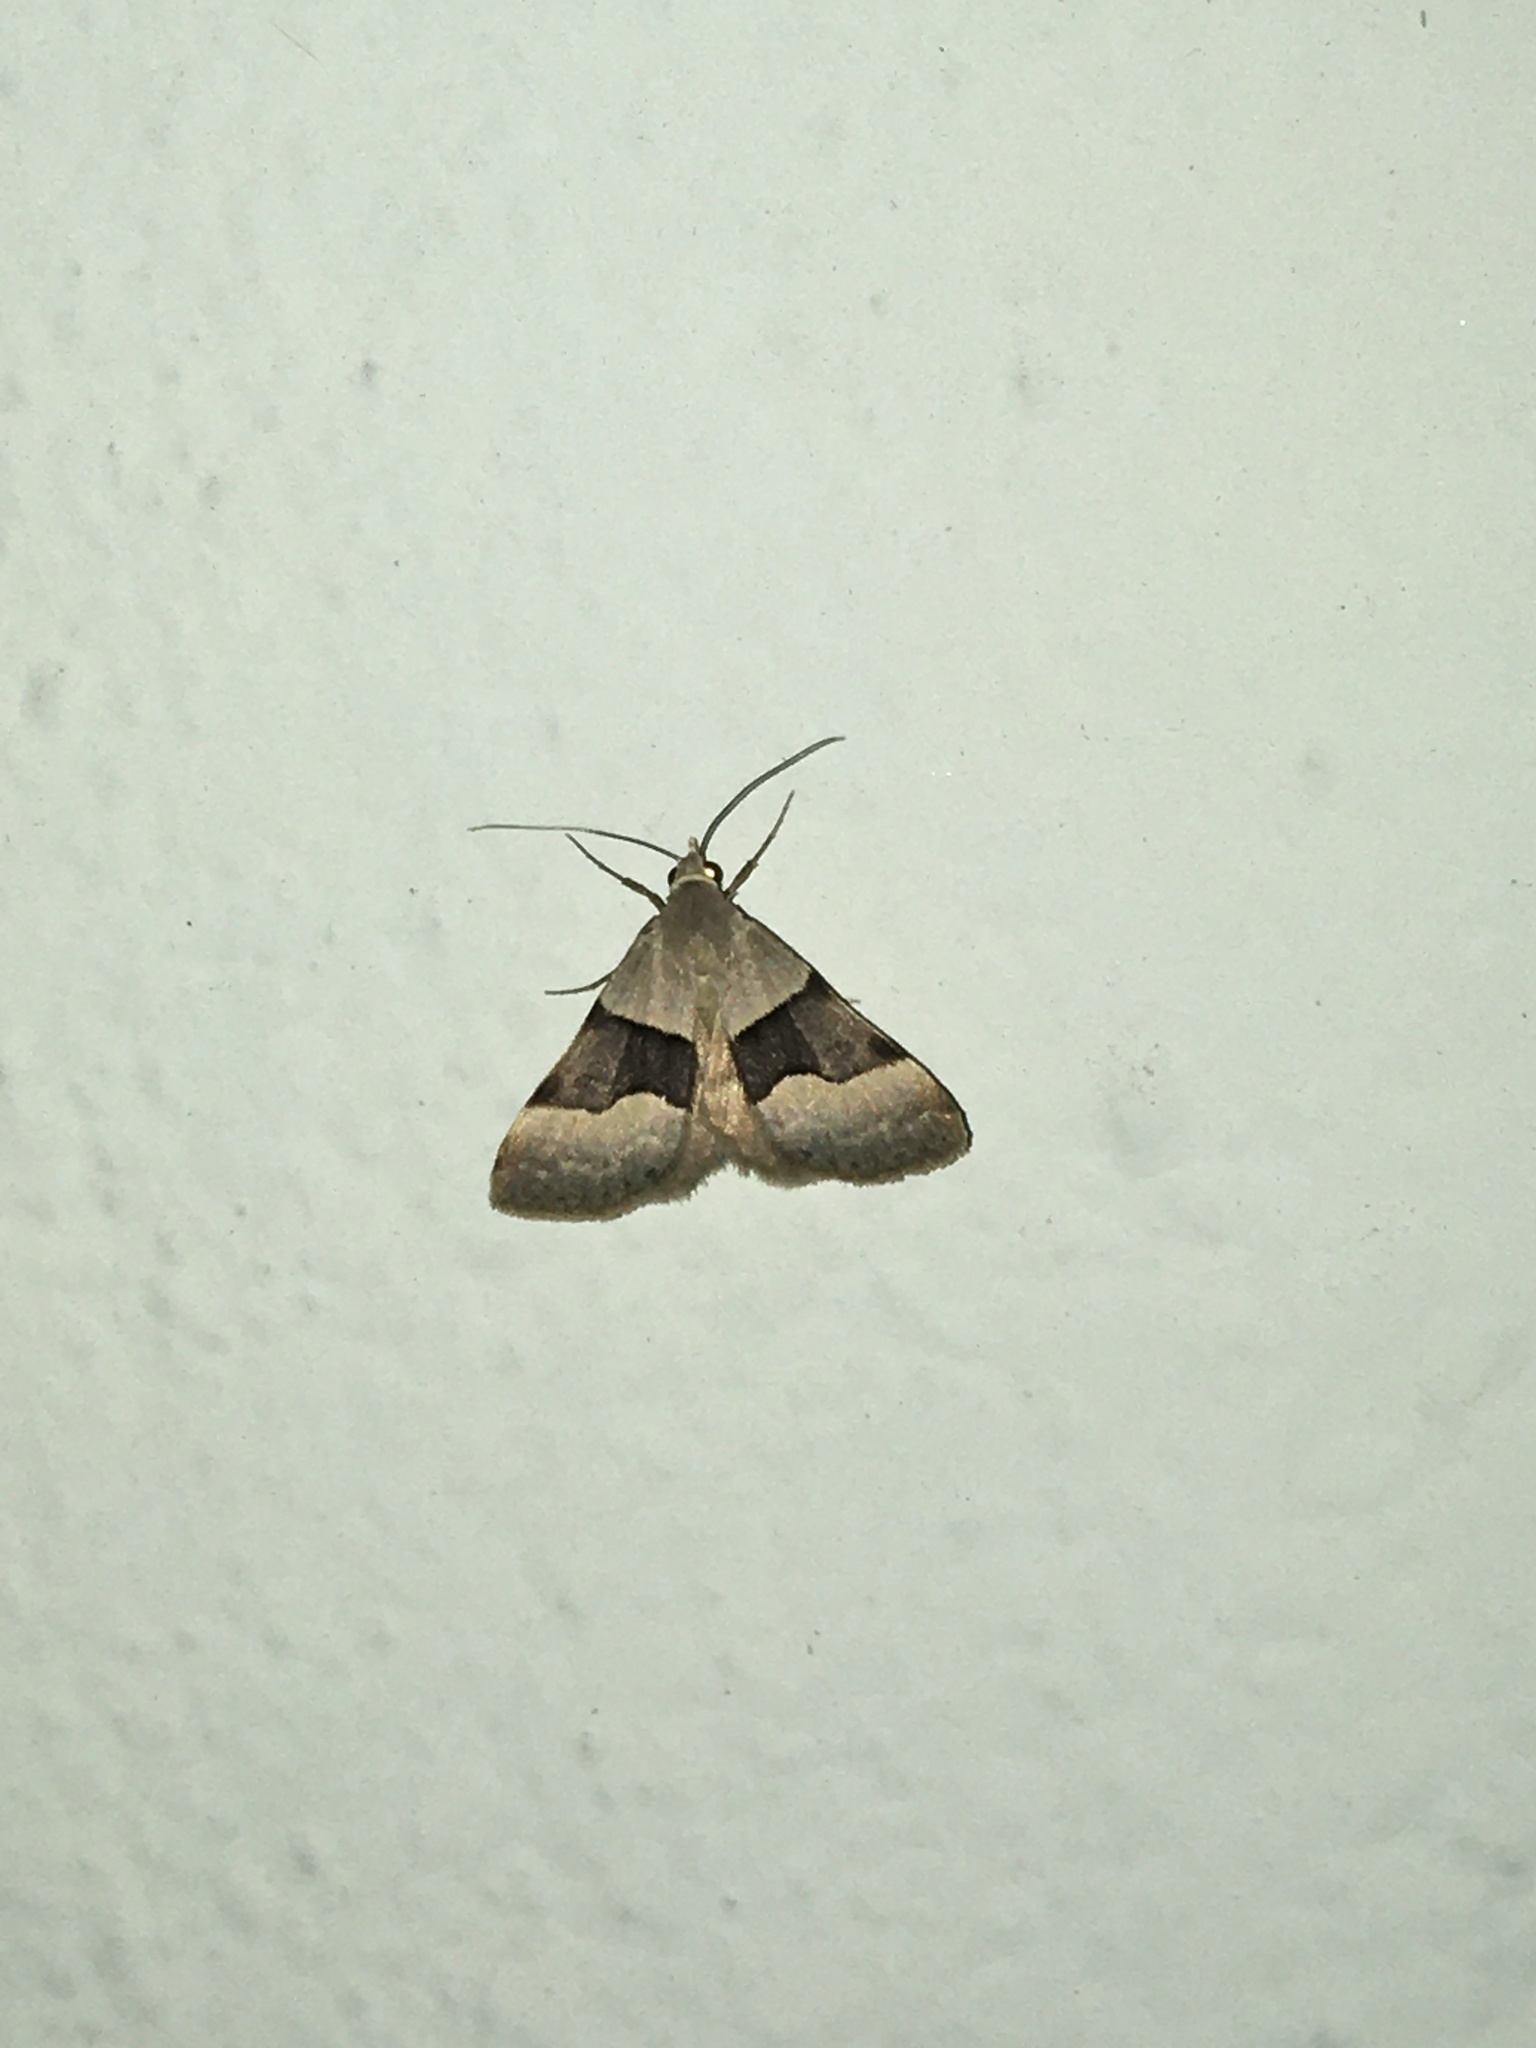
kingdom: Animalia
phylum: Arthropoda
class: Insecta
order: Lepidoptera
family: Erebidae
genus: Hemeroplanis
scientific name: Hemeroplanis incusalis
